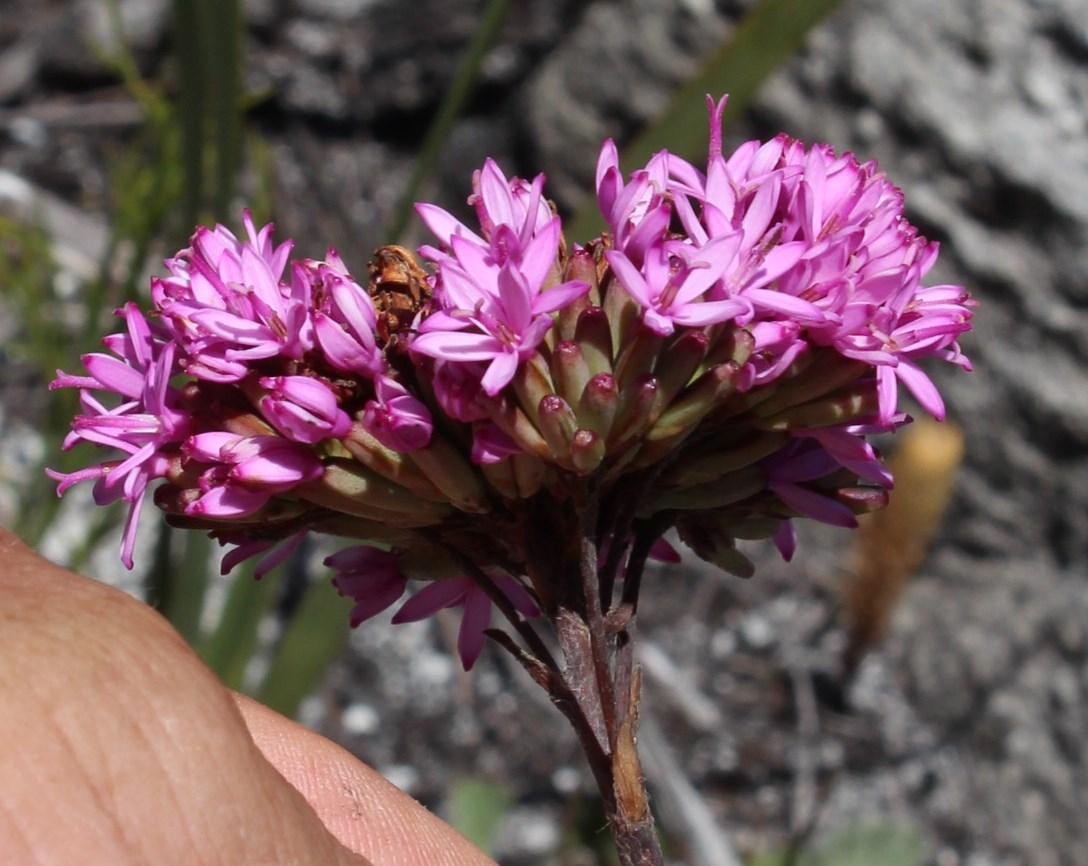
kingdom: Plantae
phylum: Tracheophyta
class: Magnoliopsida
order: Asterales
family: Asteraceae
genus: Corymbium
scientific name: Corymbium glabrum
